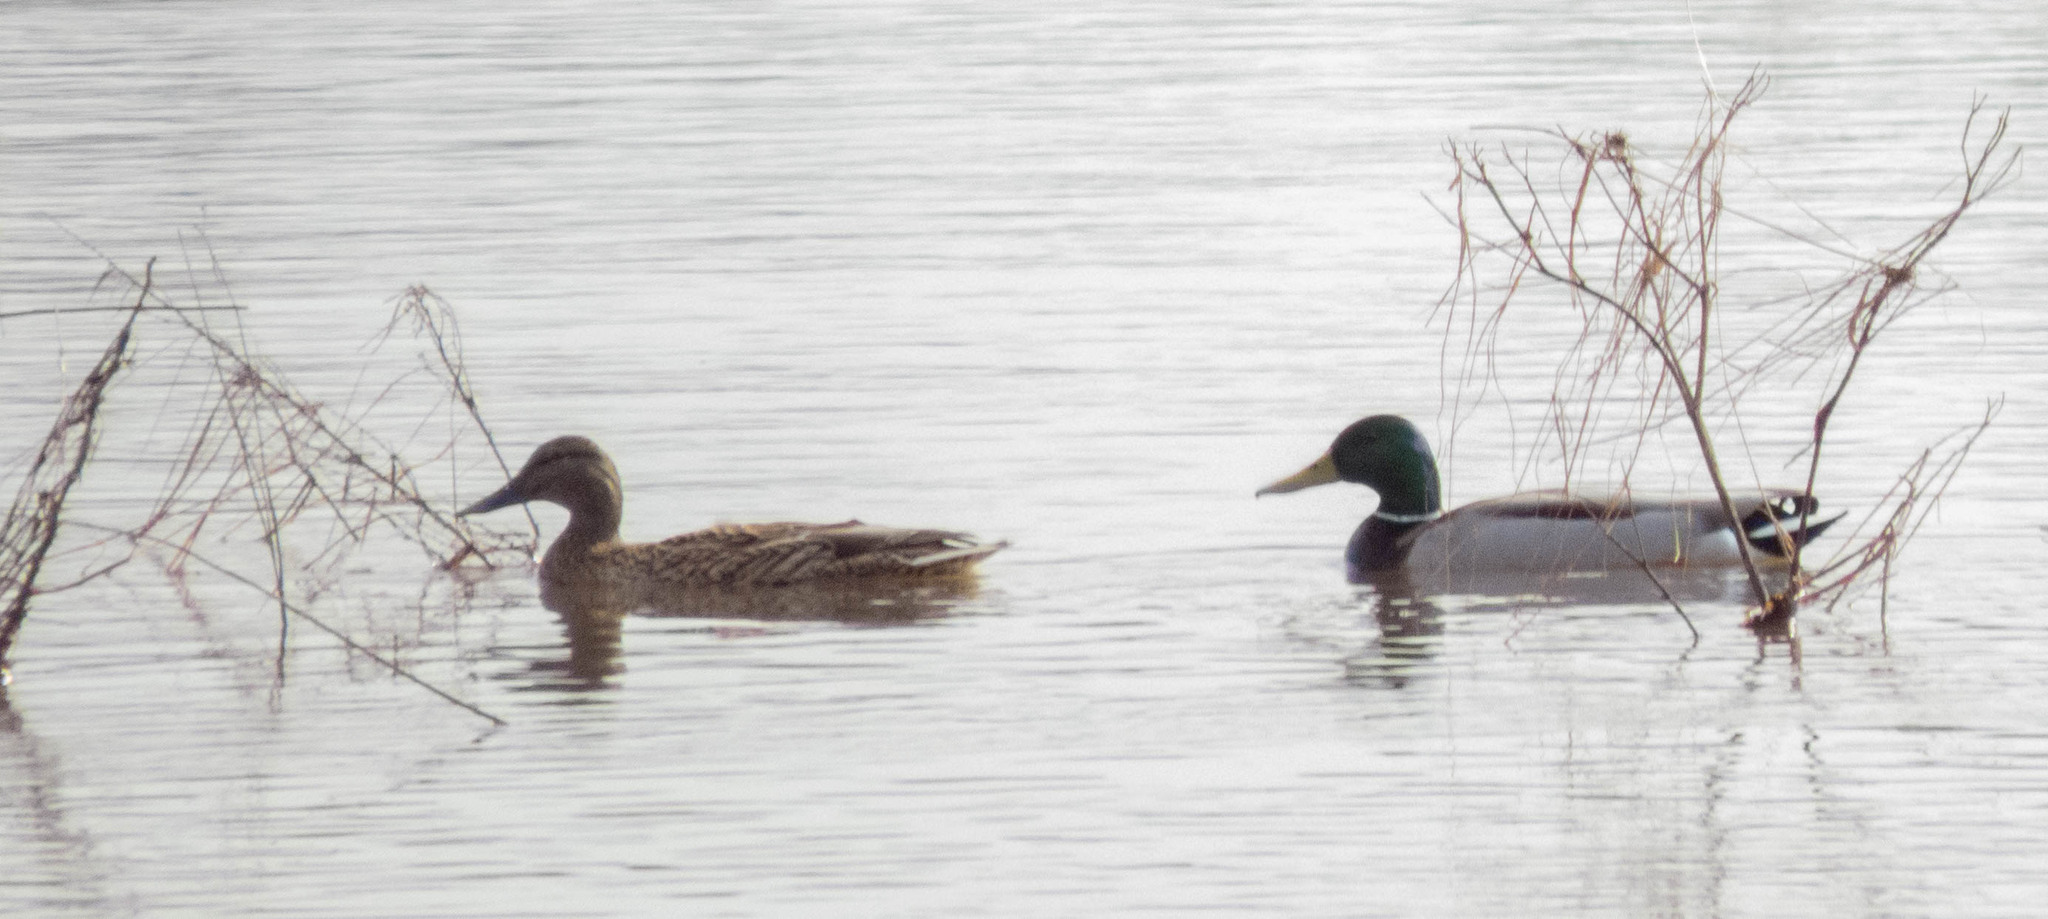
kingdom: Animalia
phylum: Chordata
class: Aves
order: Anseriformes
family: Anatidae
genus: Anas
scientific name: Anas platyrhynchos
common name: Mallard
